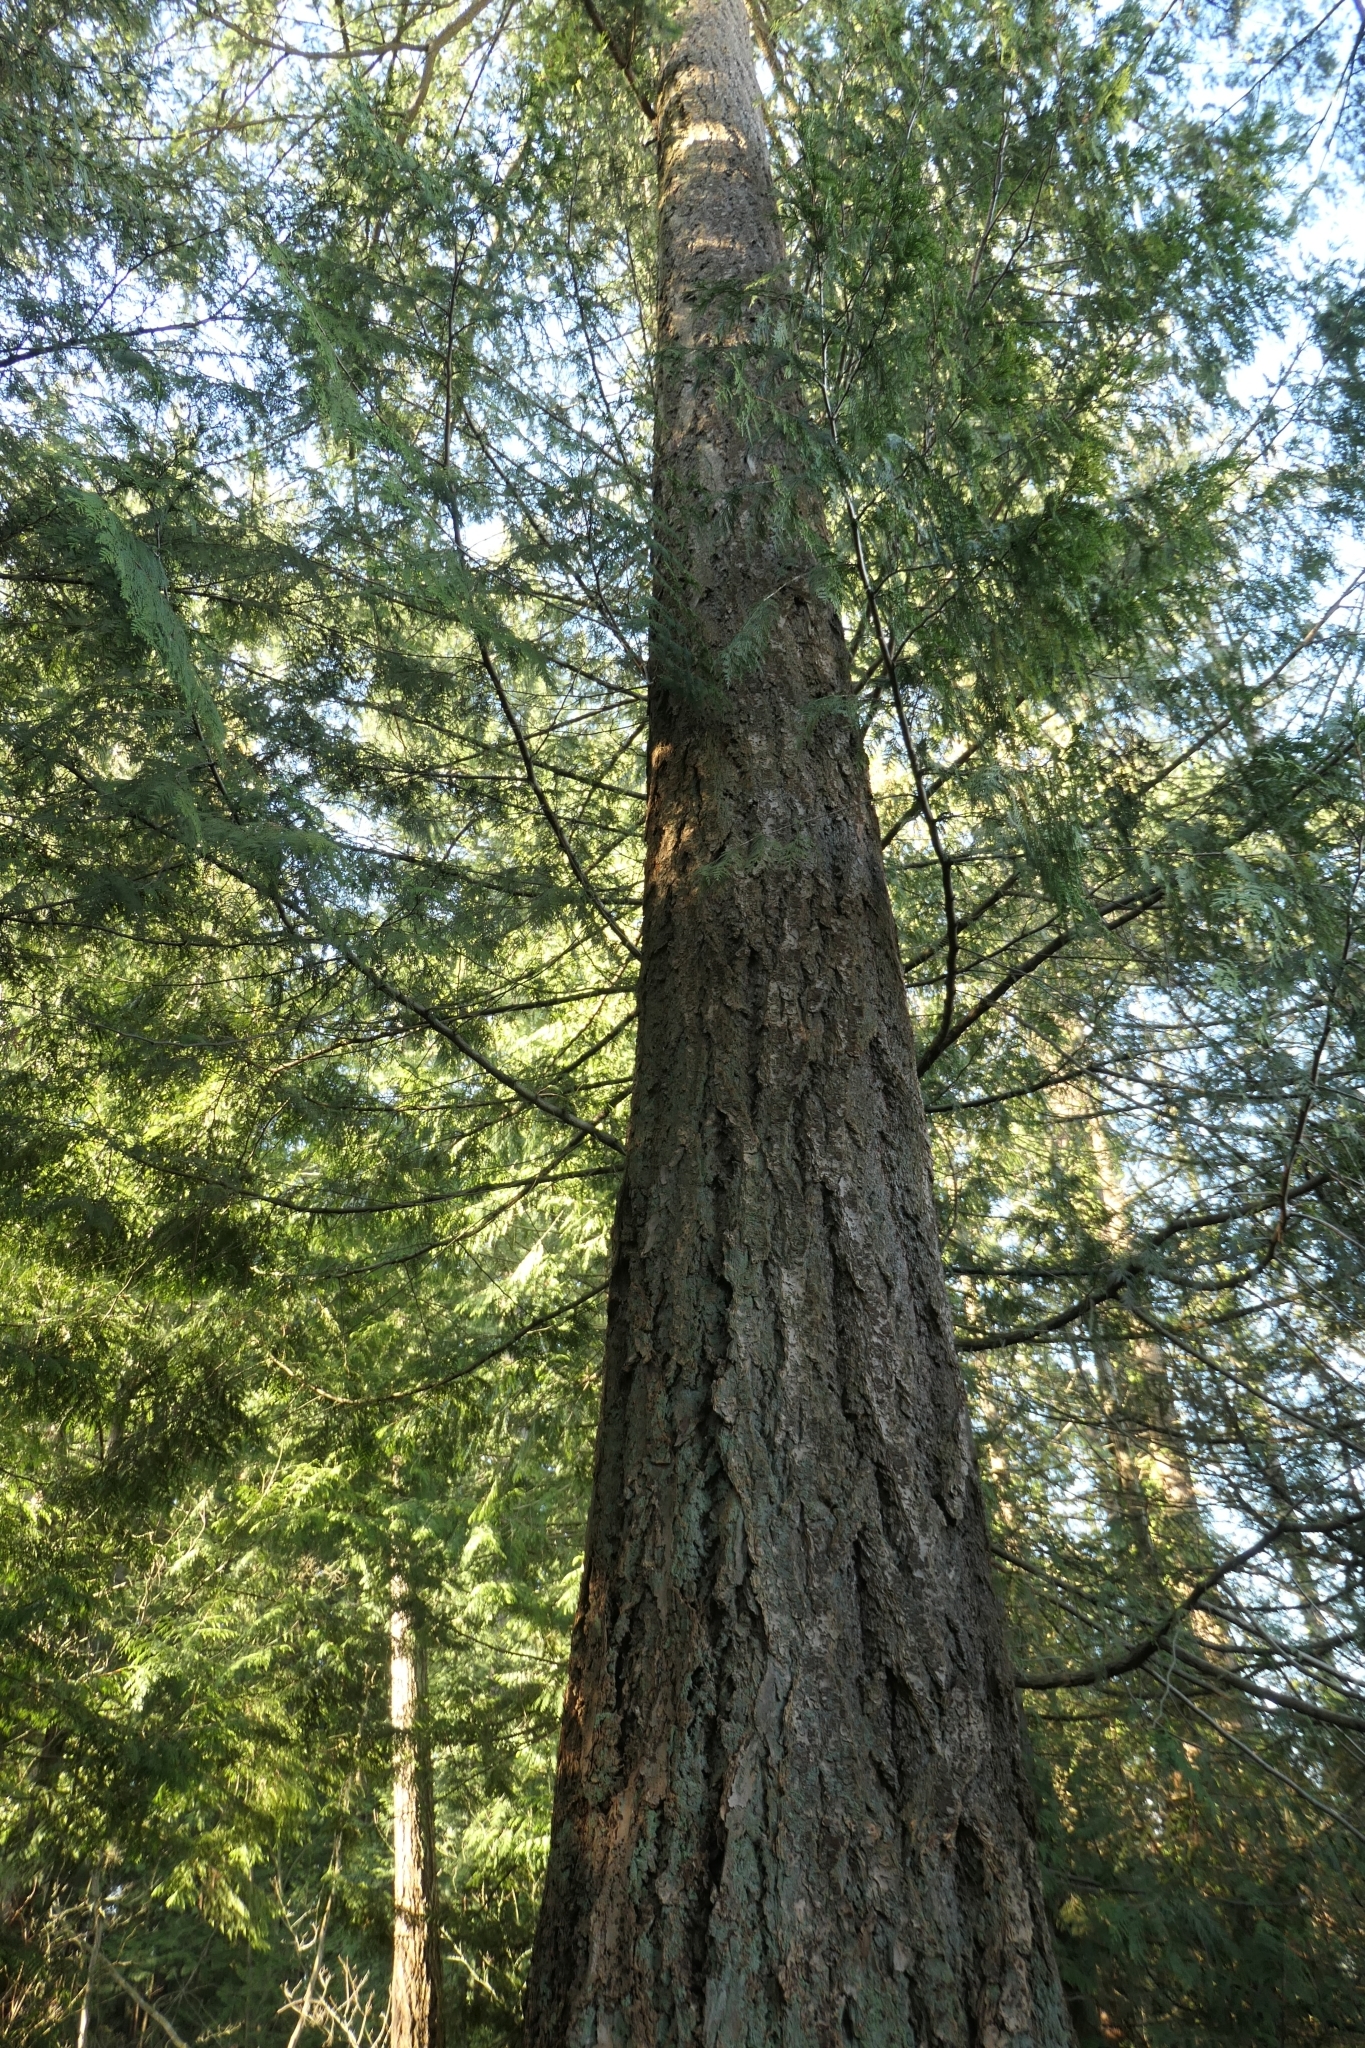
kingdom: Plantae
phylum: Tracheophyta
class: Pinopsida
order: Pinales
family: Pinaceae
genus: Pseudotsuga
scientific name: Pseudotsuga menziesii
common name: Douglas fir
